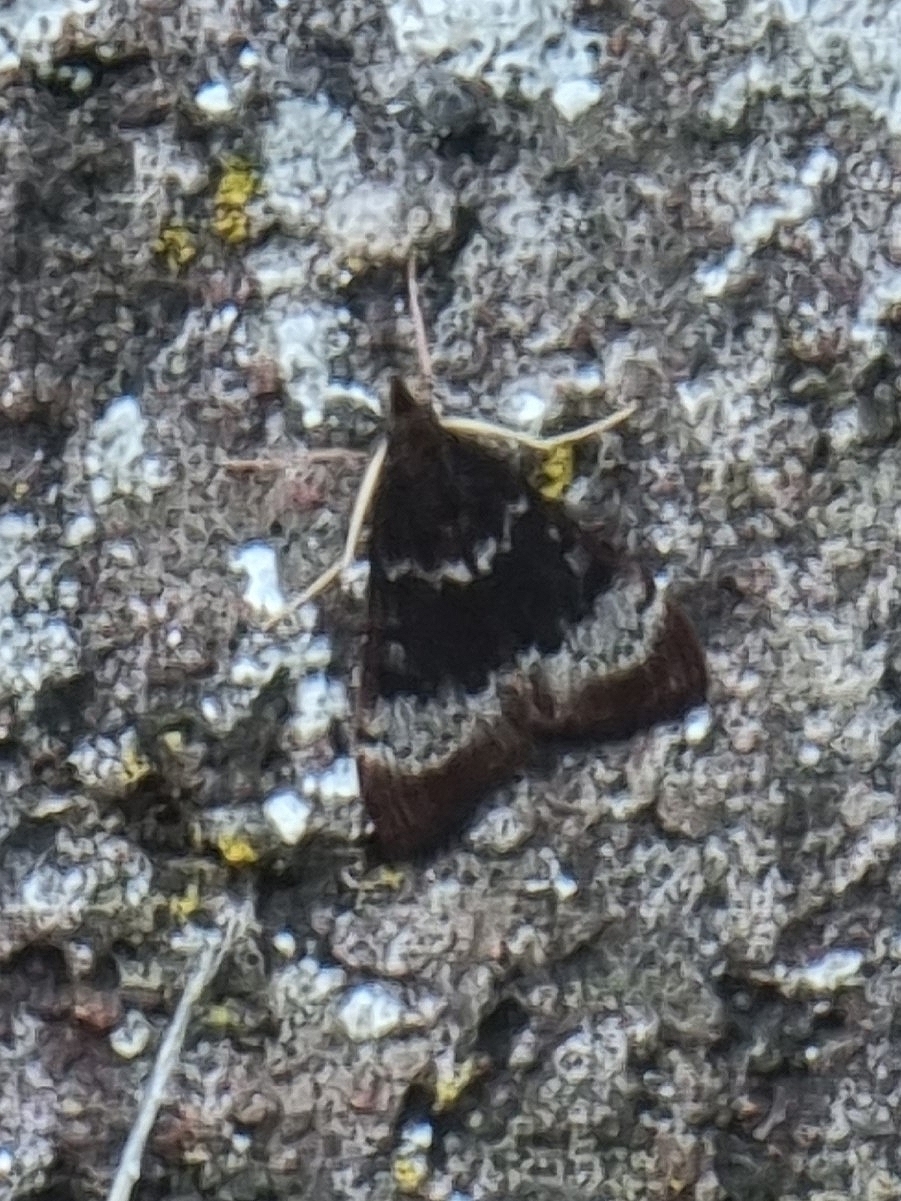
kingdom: Animalia
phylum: Arthropoda
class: Insecta
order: Lepidoptera
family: Crambidae
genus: Uresiphita
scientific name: Uresiphita gilvata
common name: Yellow-underwing pearl
